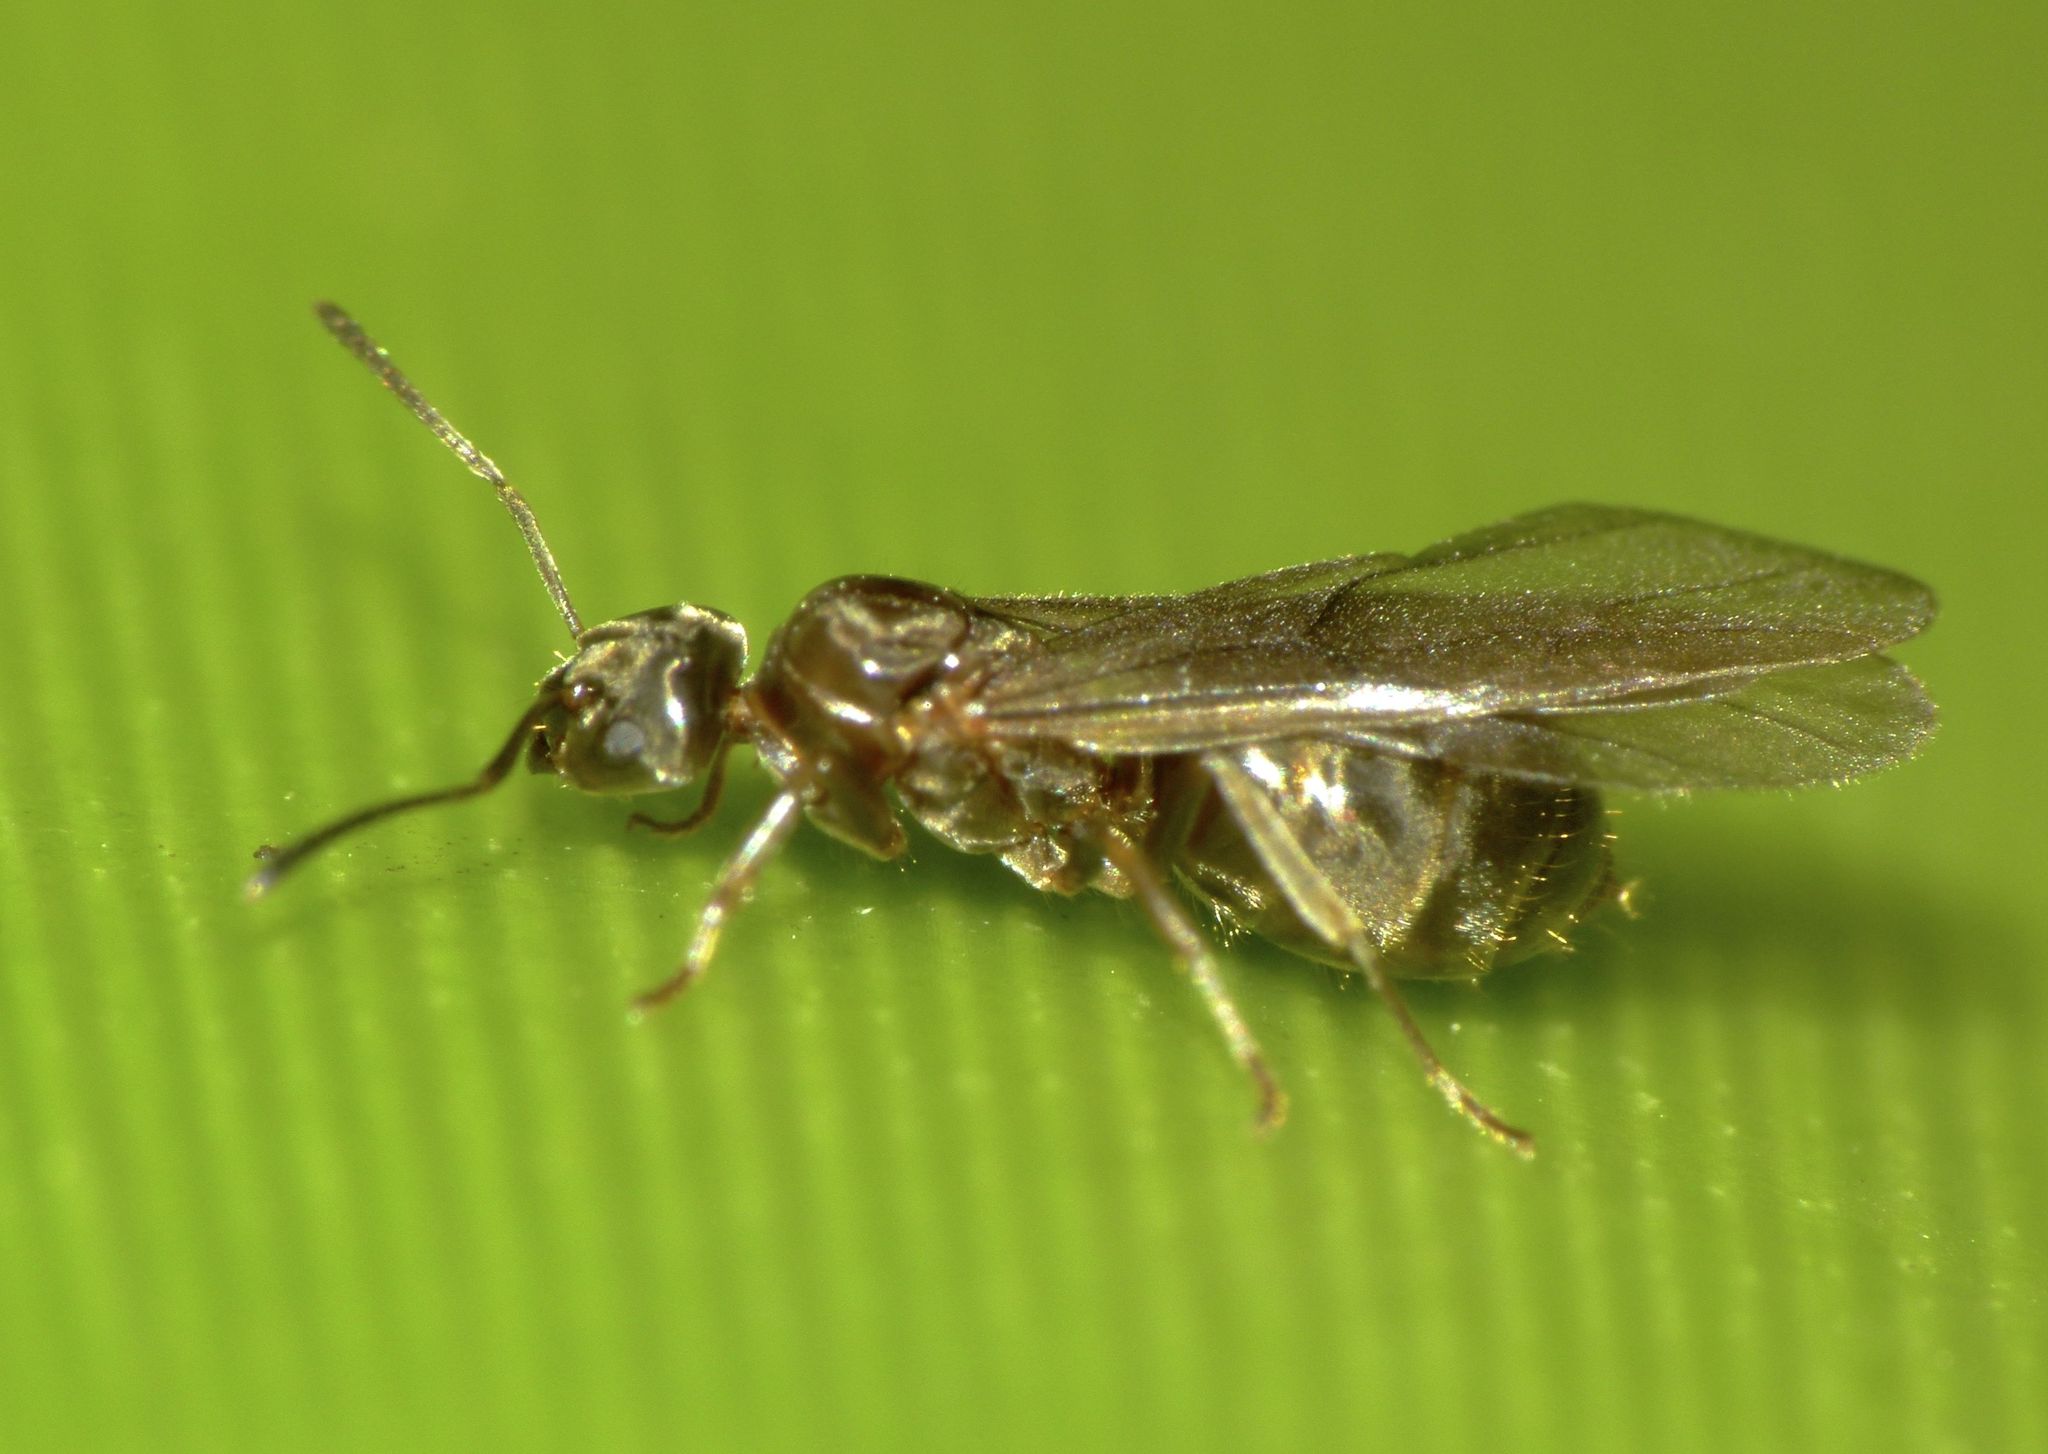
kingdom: Animalia
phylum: Arthropoda
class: Insecta
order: Hymenoptera
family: Formicidae
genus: Prolasius
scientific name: Prolasius advenus
